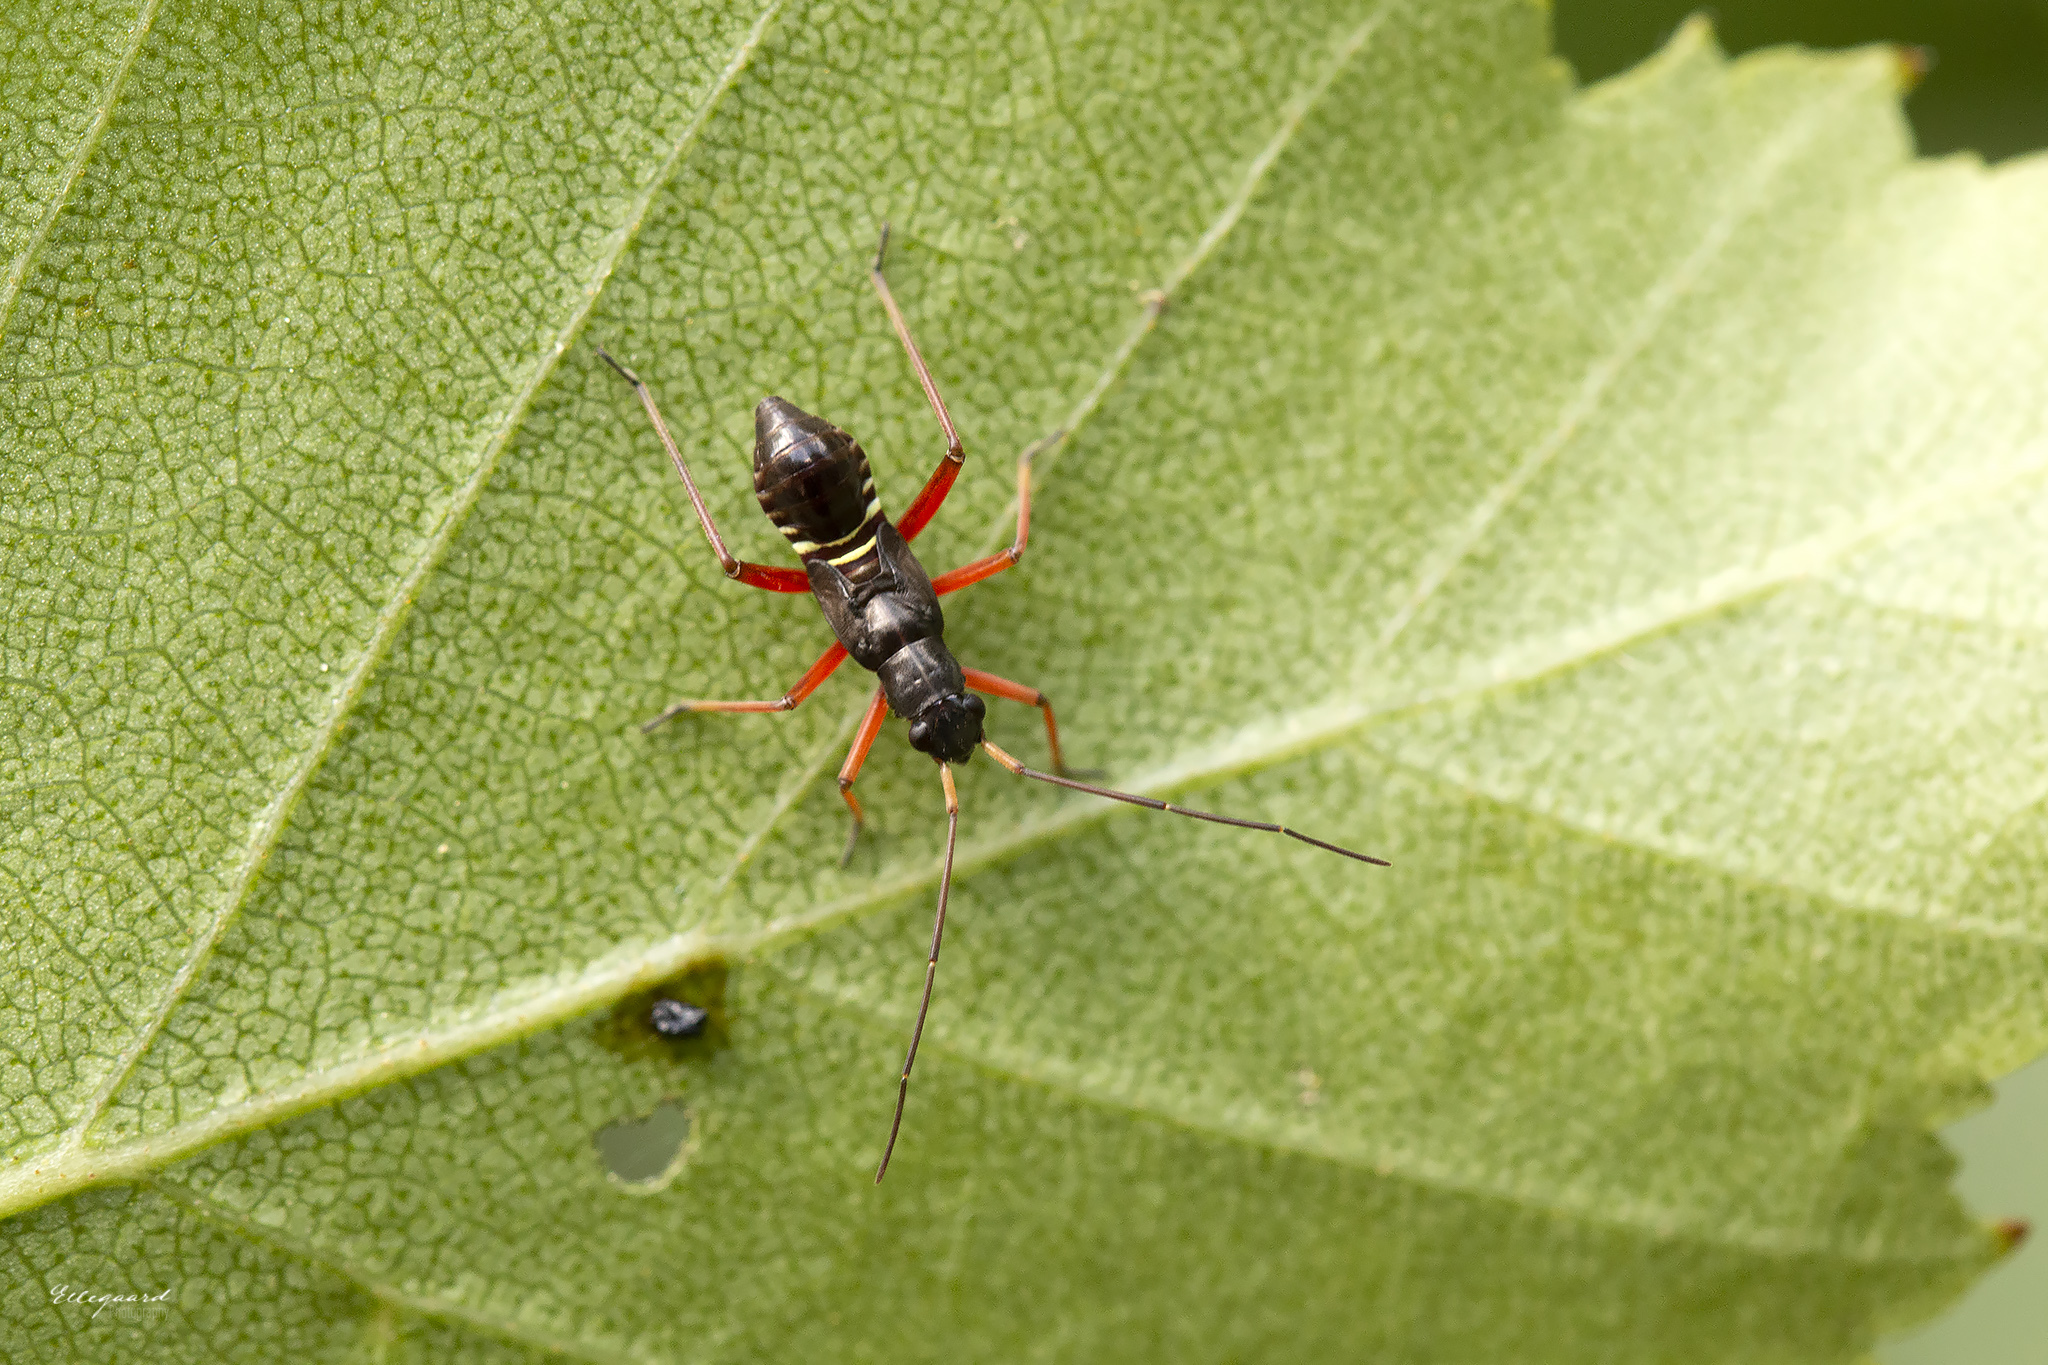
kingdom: Animalia
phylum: Arthropoda
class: Insecta
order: Hemiptera
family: Miridae
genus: Miris
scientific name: Miris striatus
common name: Fine streaked bugkin
